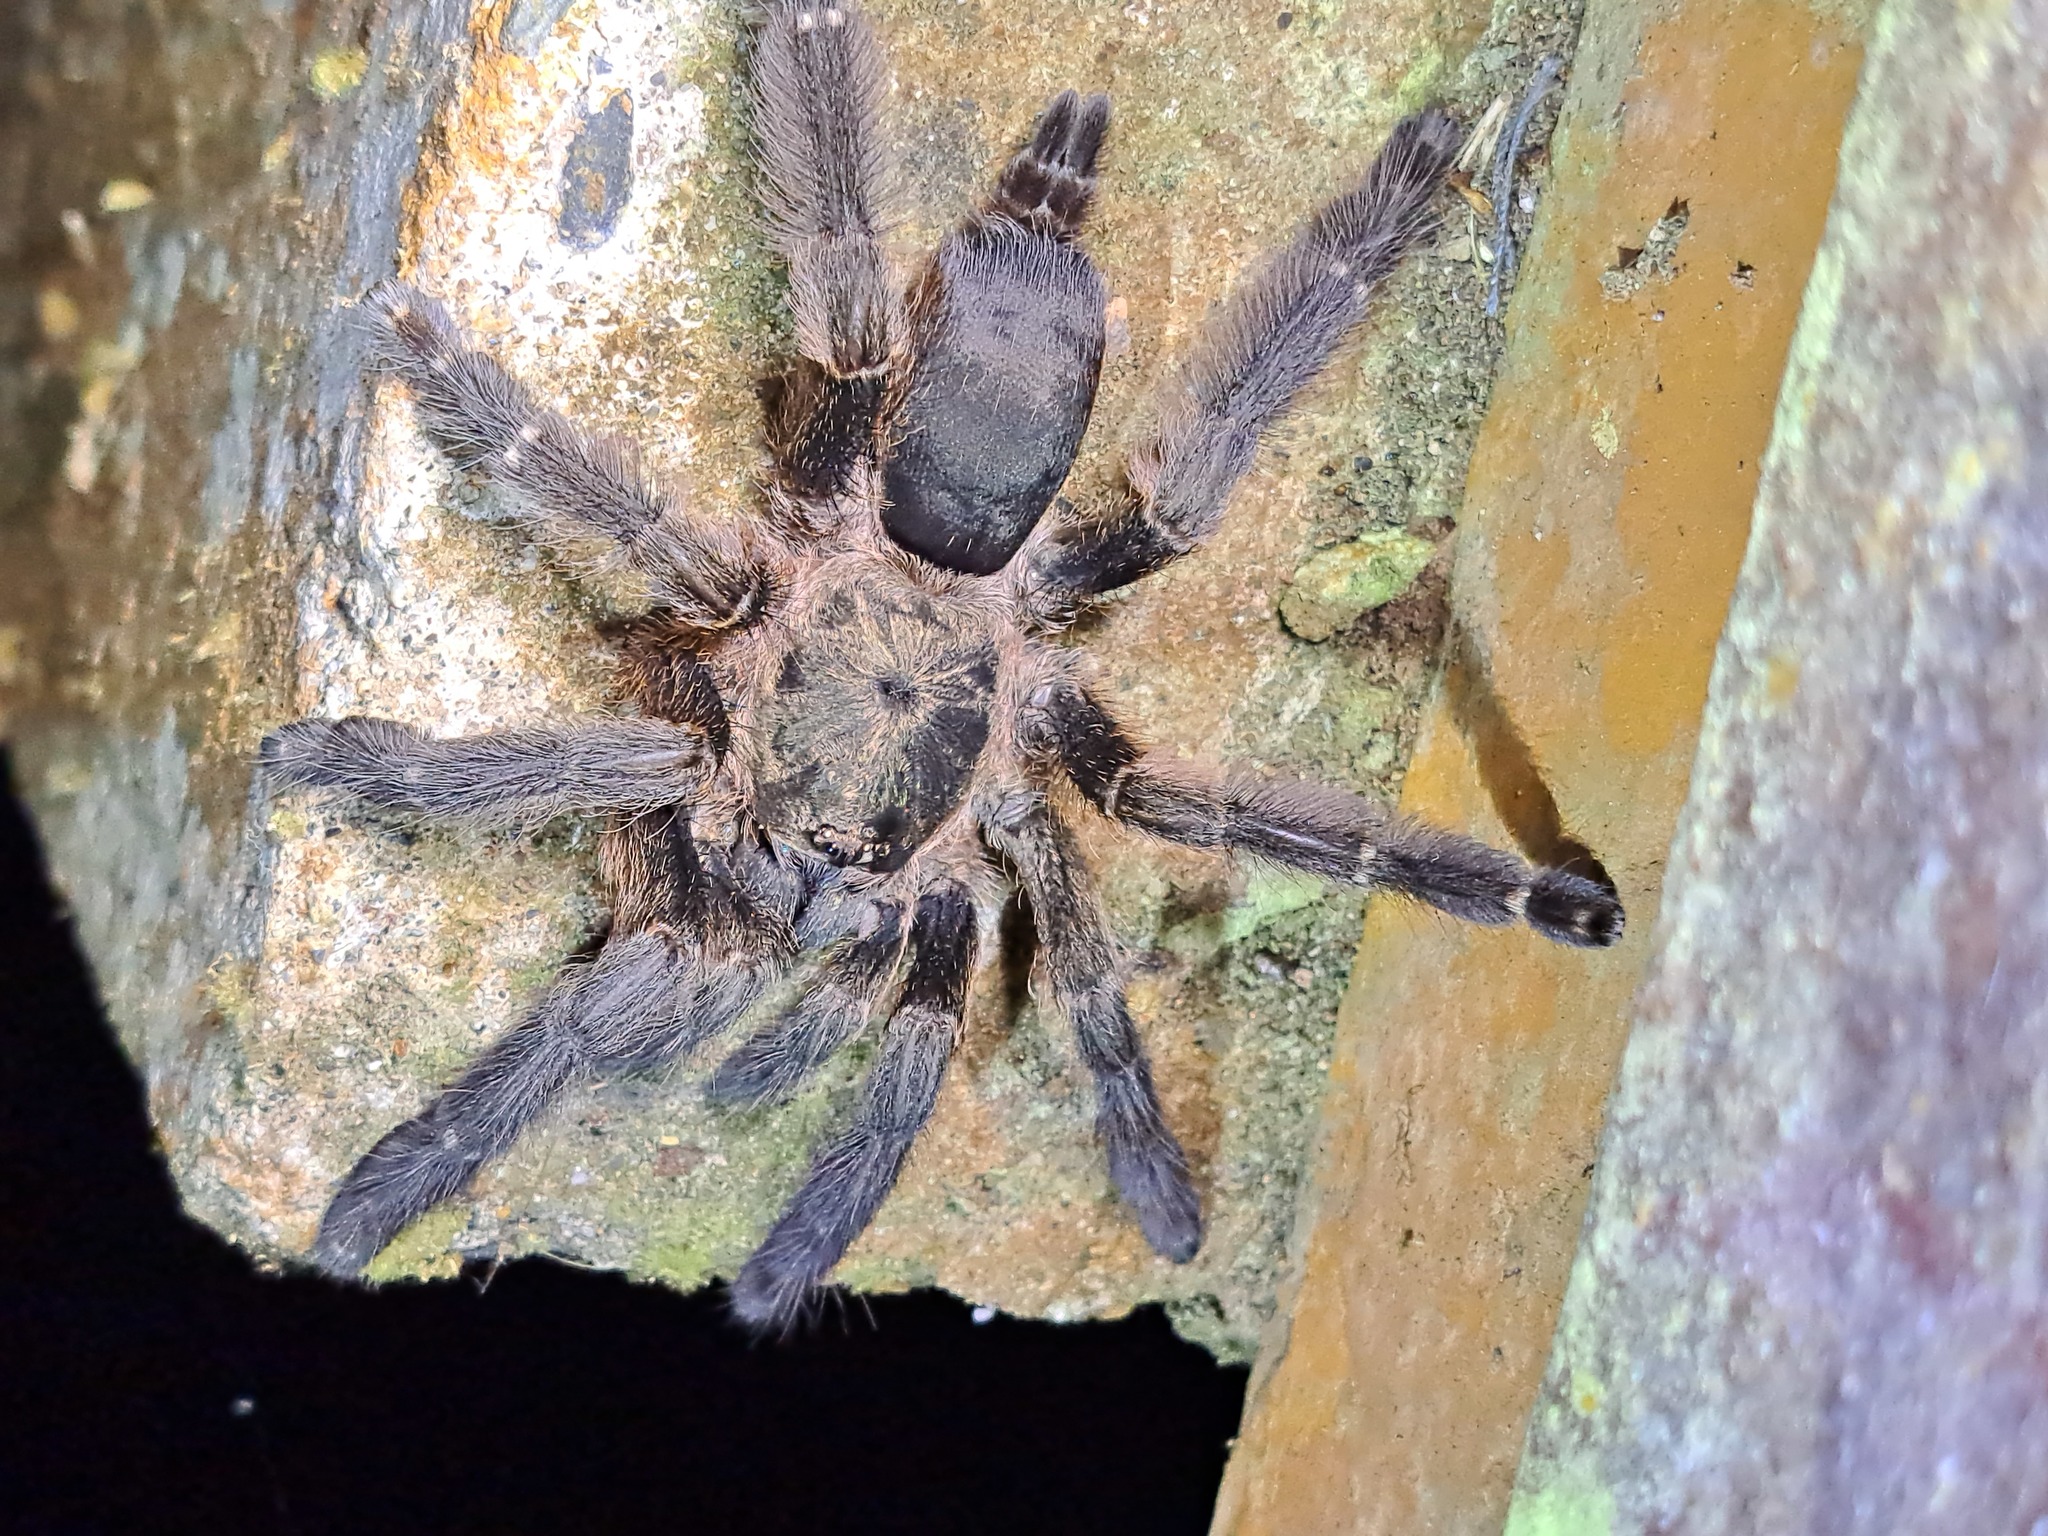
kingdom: Animalia
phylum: Arthropoda
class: Arachnida
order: Araneae
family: Theraphosidae
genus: Tapinauchenius
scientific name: Tapinauchenius cupreus
